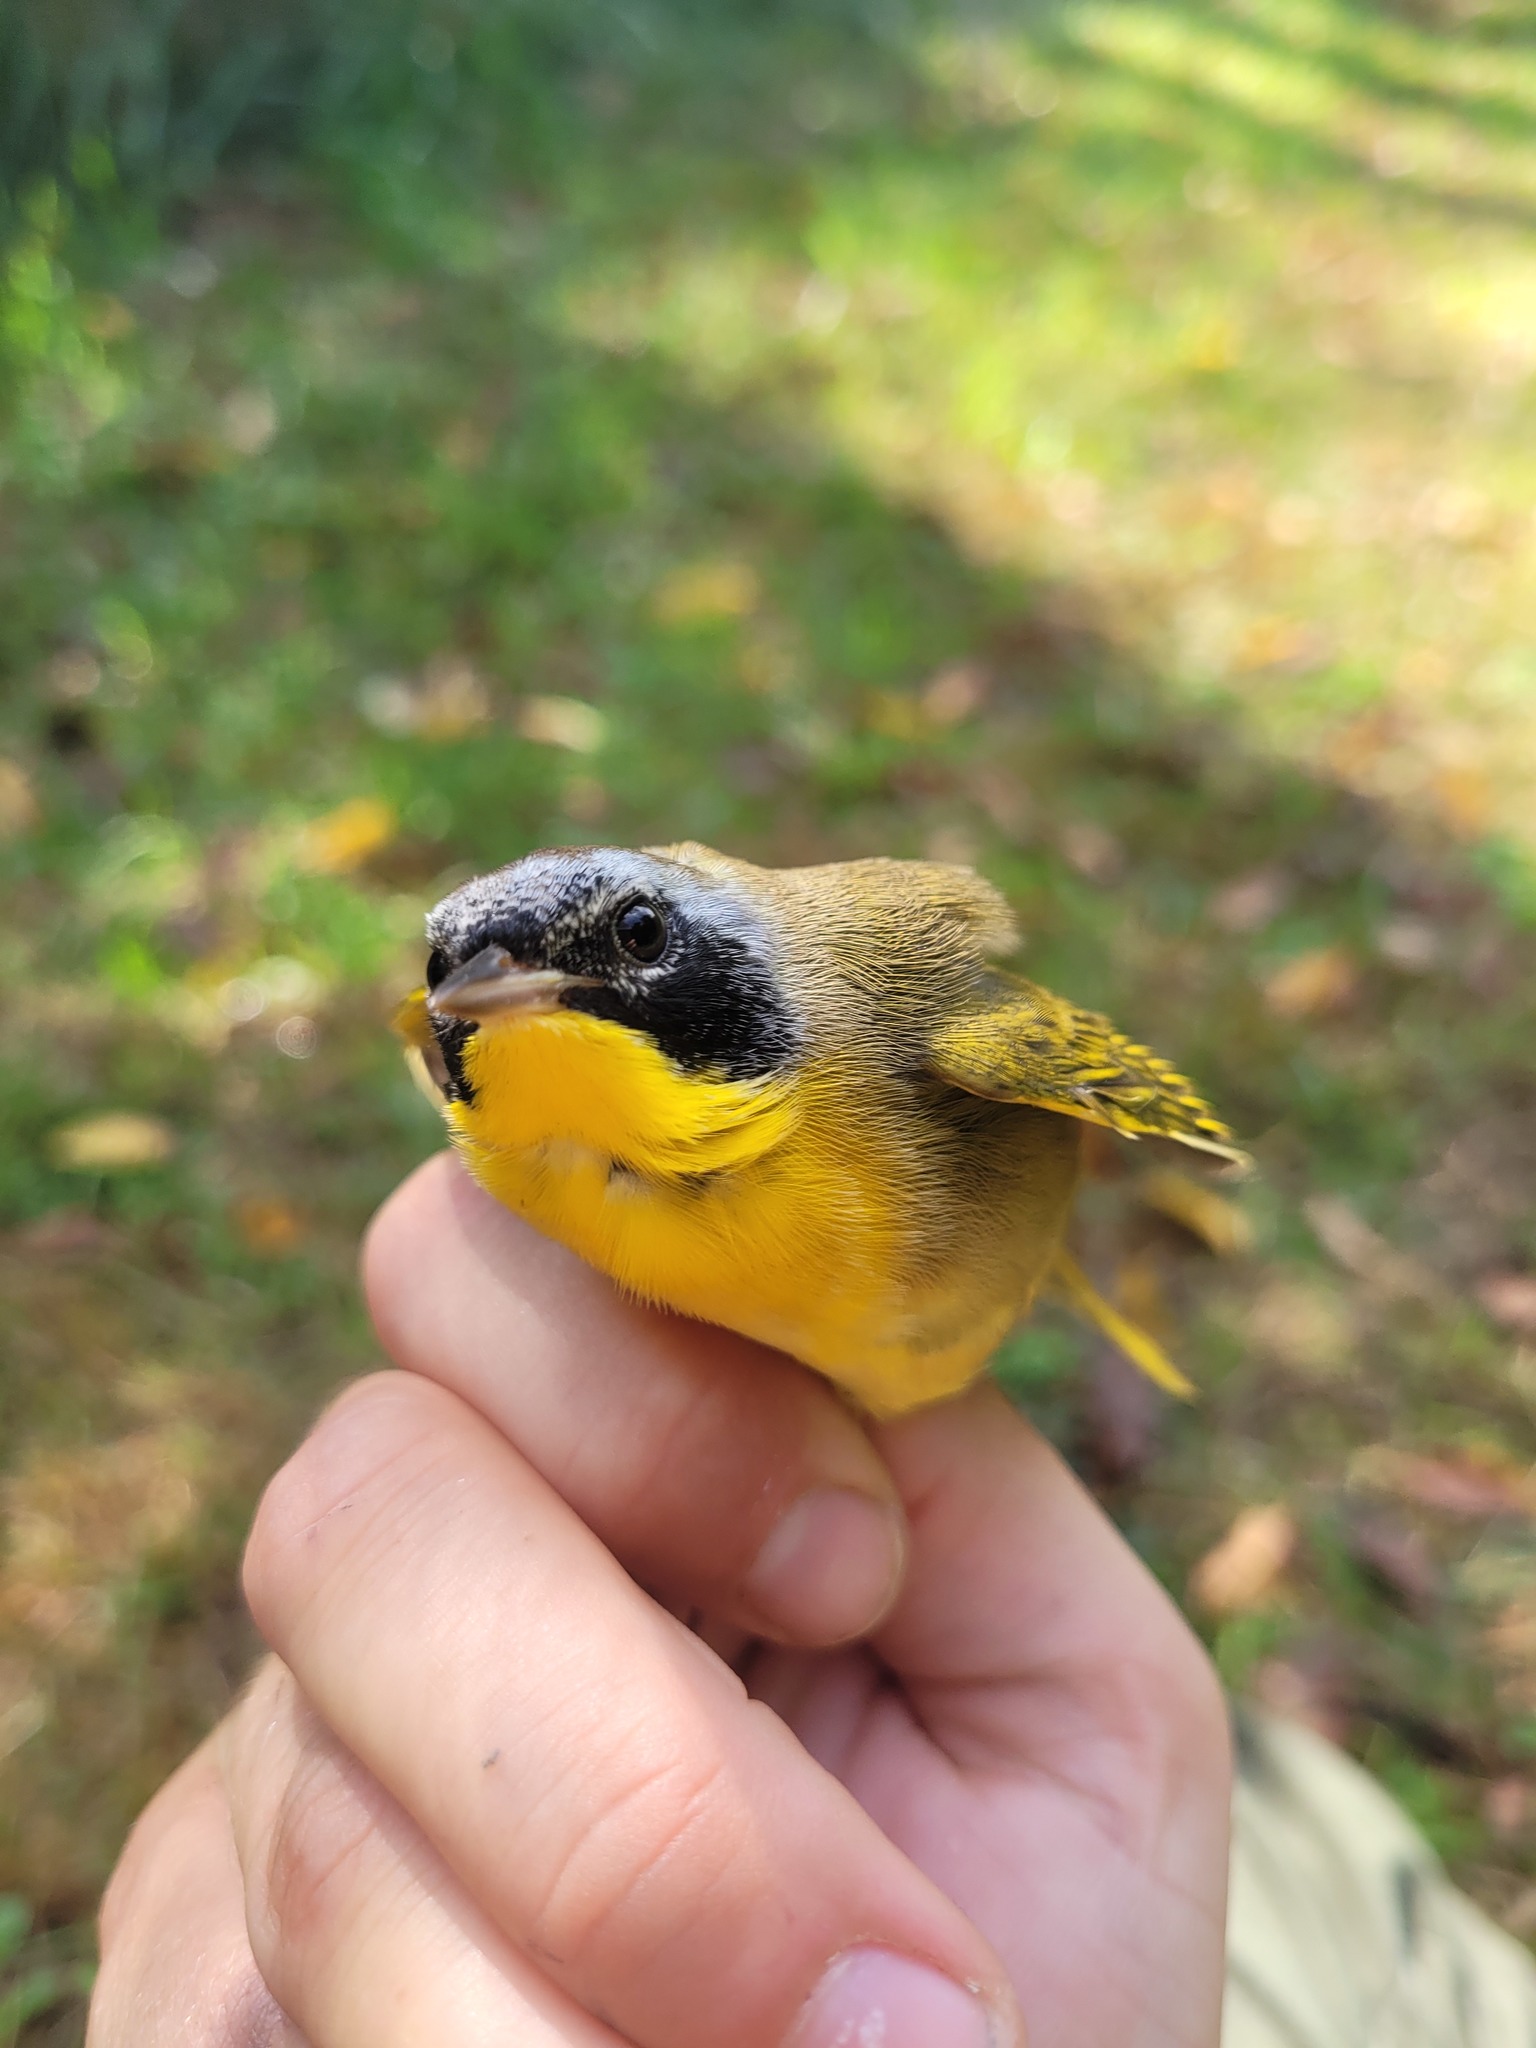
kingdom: Animalia
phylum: Chordata
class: Aves
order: Passeriformes
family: Parulidae
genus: Geothlypis
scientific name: Geothlypis trichas
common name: Common yellowthroat
